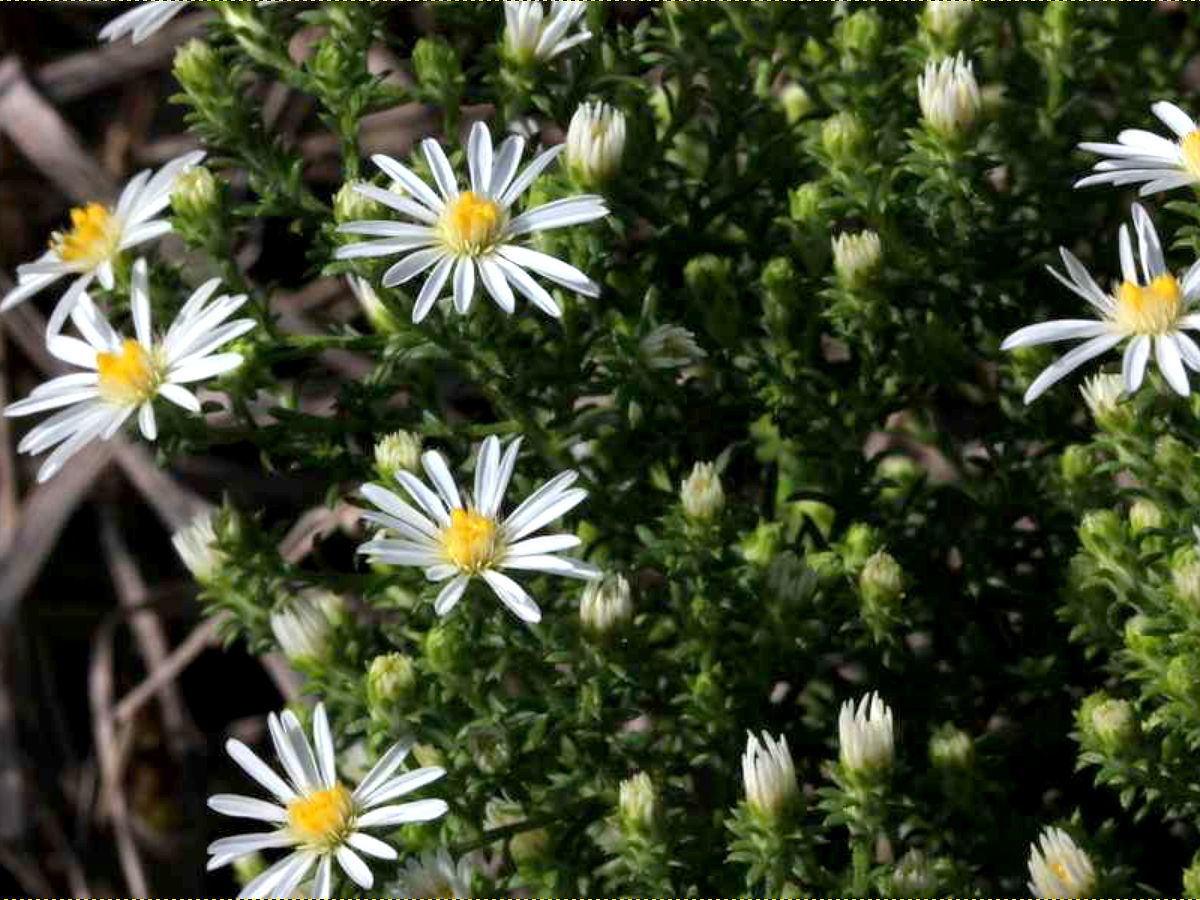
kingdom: Plantae
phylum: Tracheophyta
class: Magnoliopsida
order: Asterales
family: Asteraceae
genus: Symphyotrichum
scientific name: Symphyotrichum ericoides
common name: Heath aster
